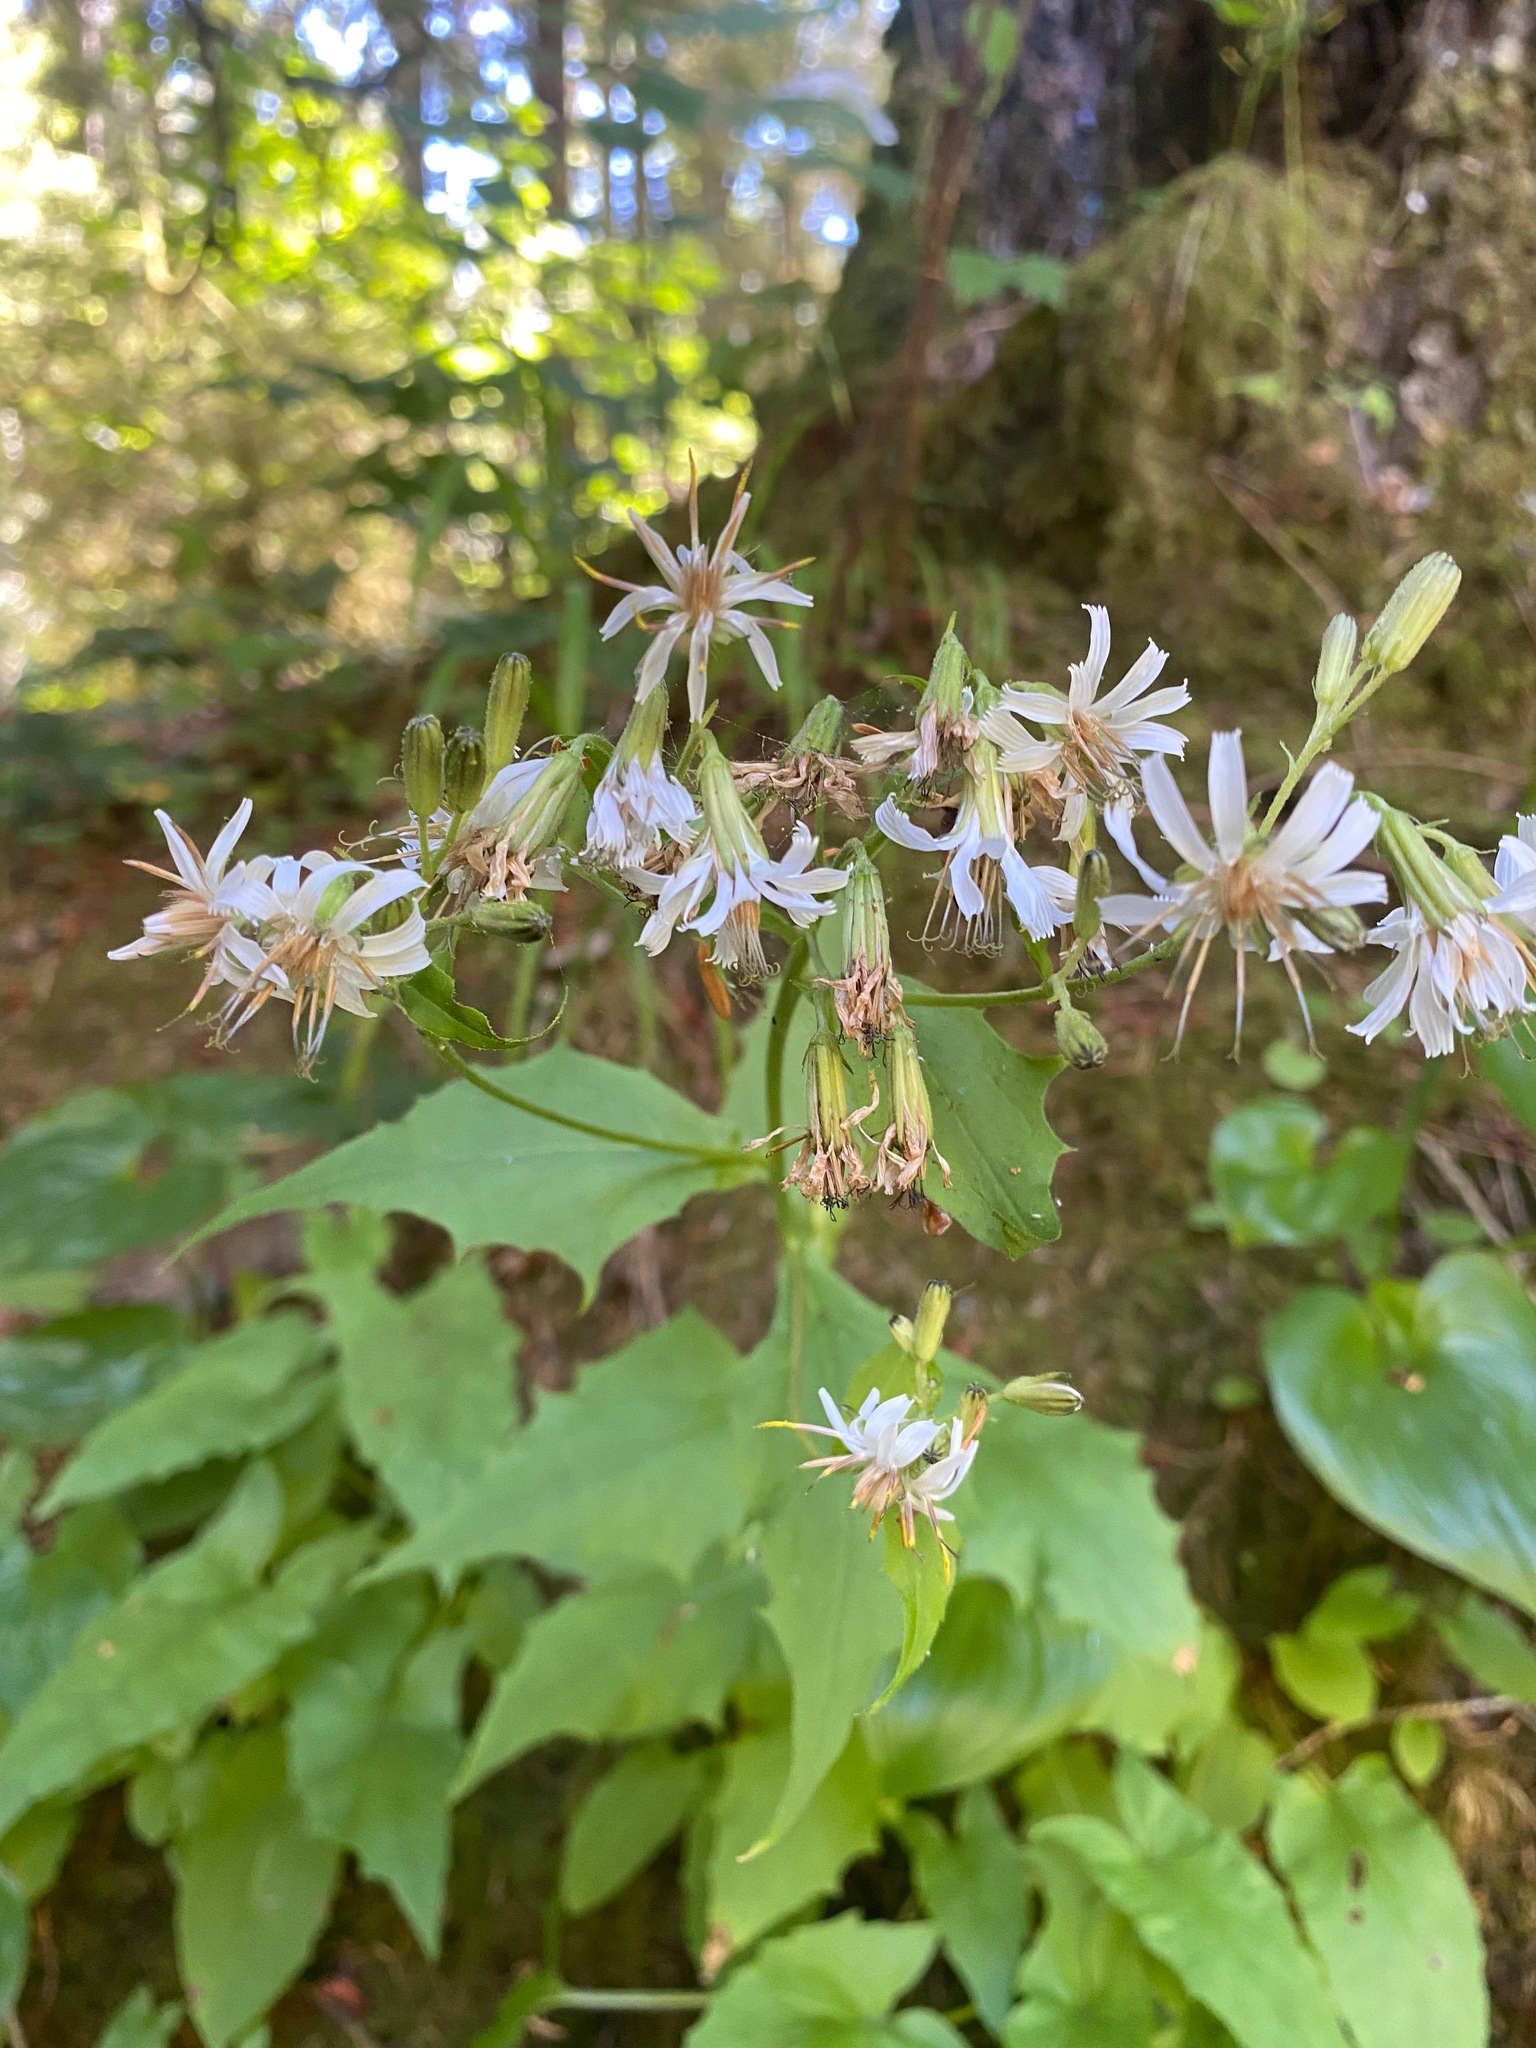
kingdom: Plantae
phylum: Tracheophyta
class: Magnoliopsida
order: Asterales
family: Asteraceae
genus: Nabalus
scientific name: Nabalus hastatus
